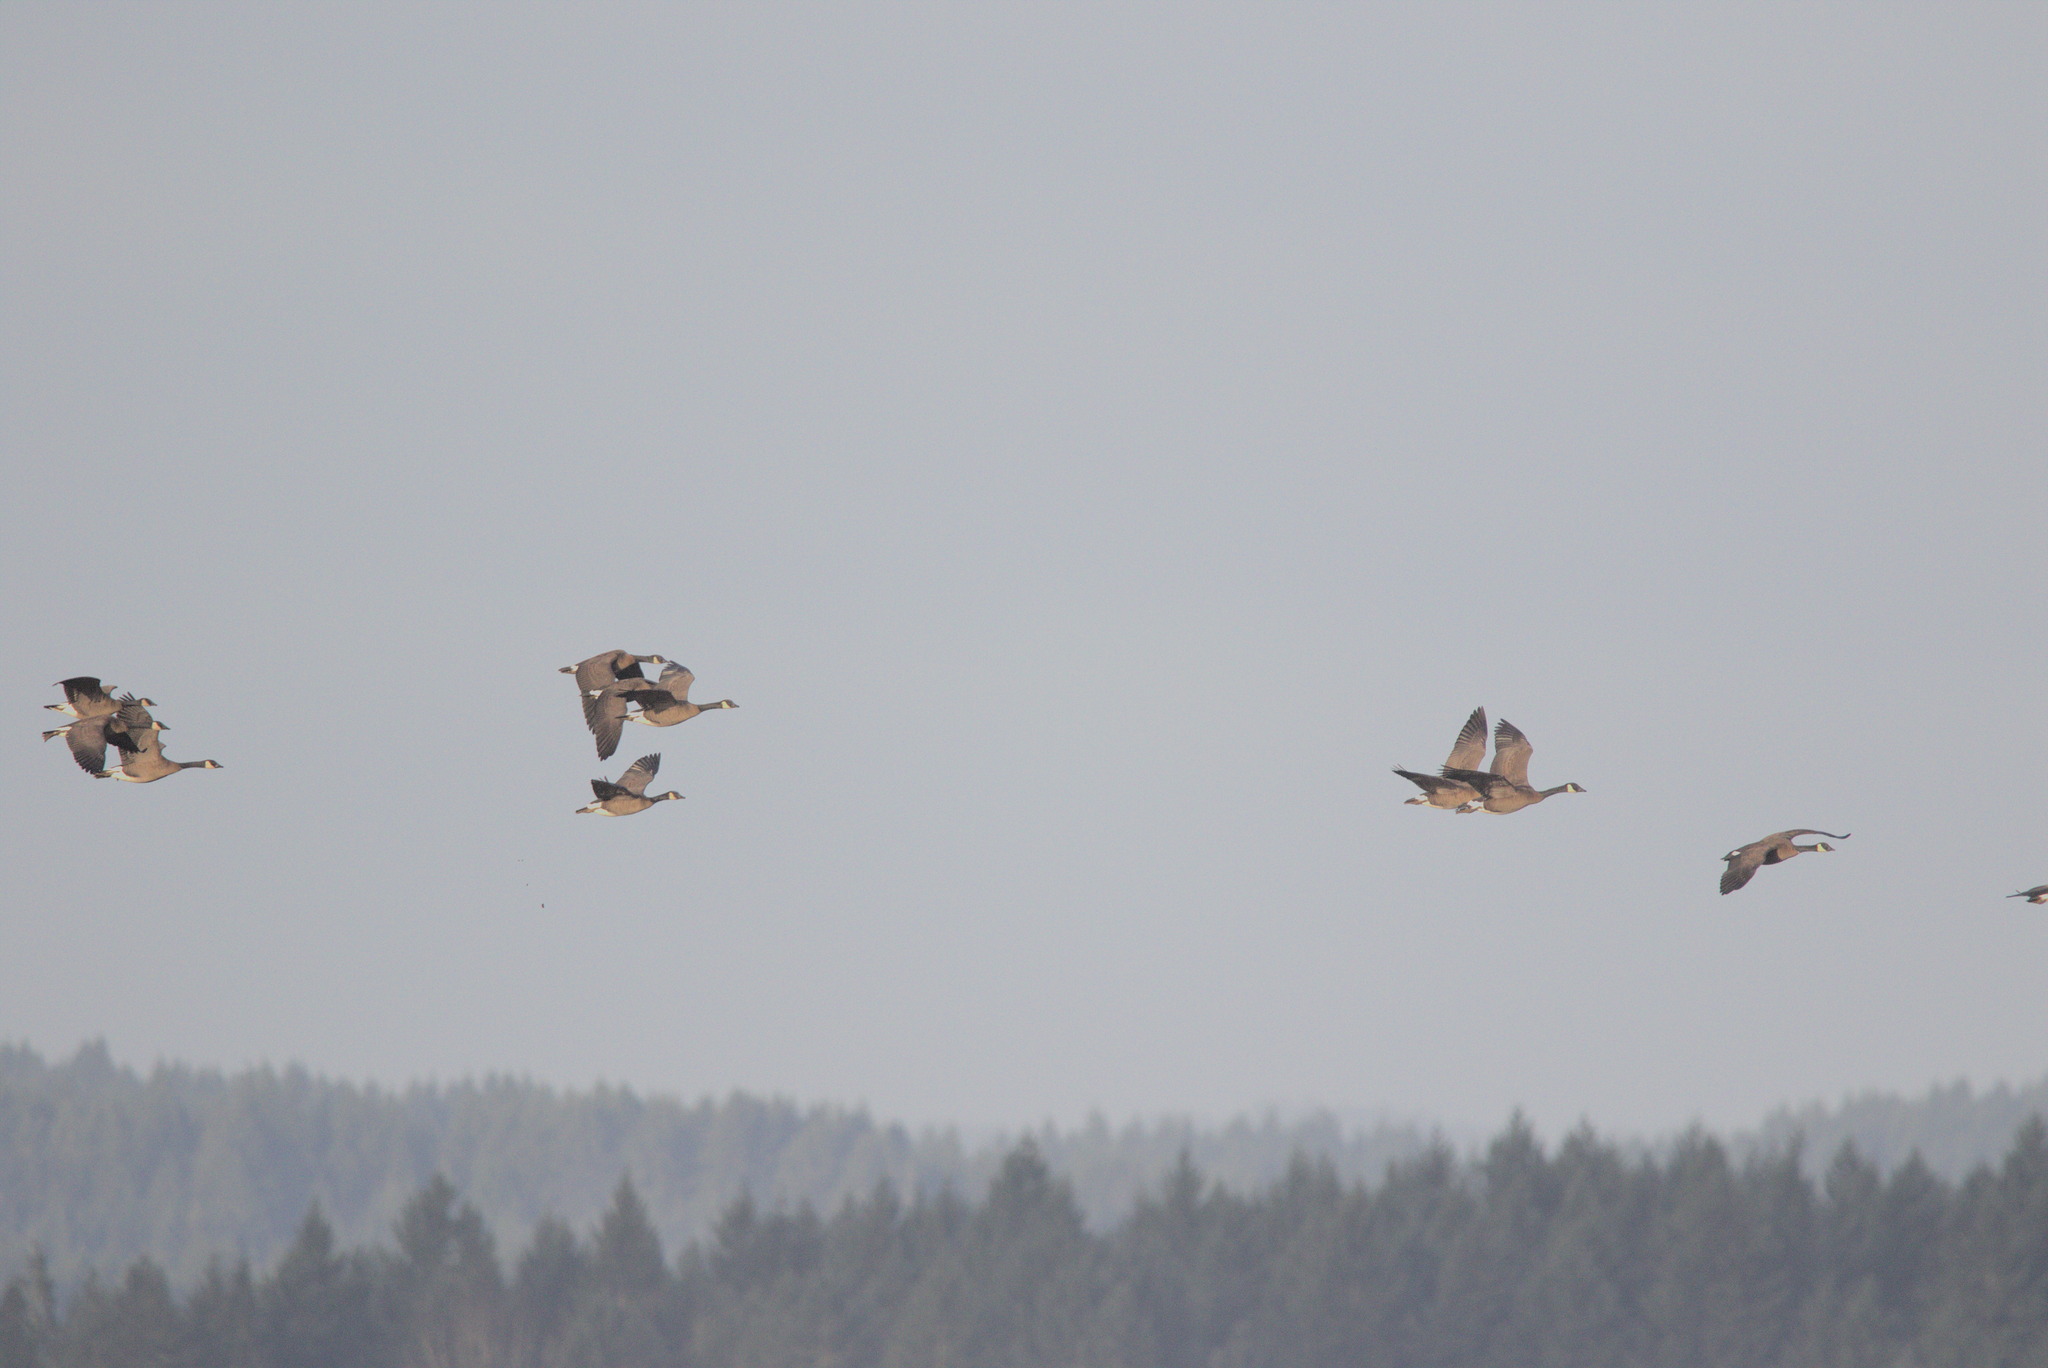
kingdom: Animalia
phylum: Chordata
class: Aves
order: Anseriformes
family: Anatidae
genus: Branta
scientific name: Branta canadensis
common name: Canada goose
